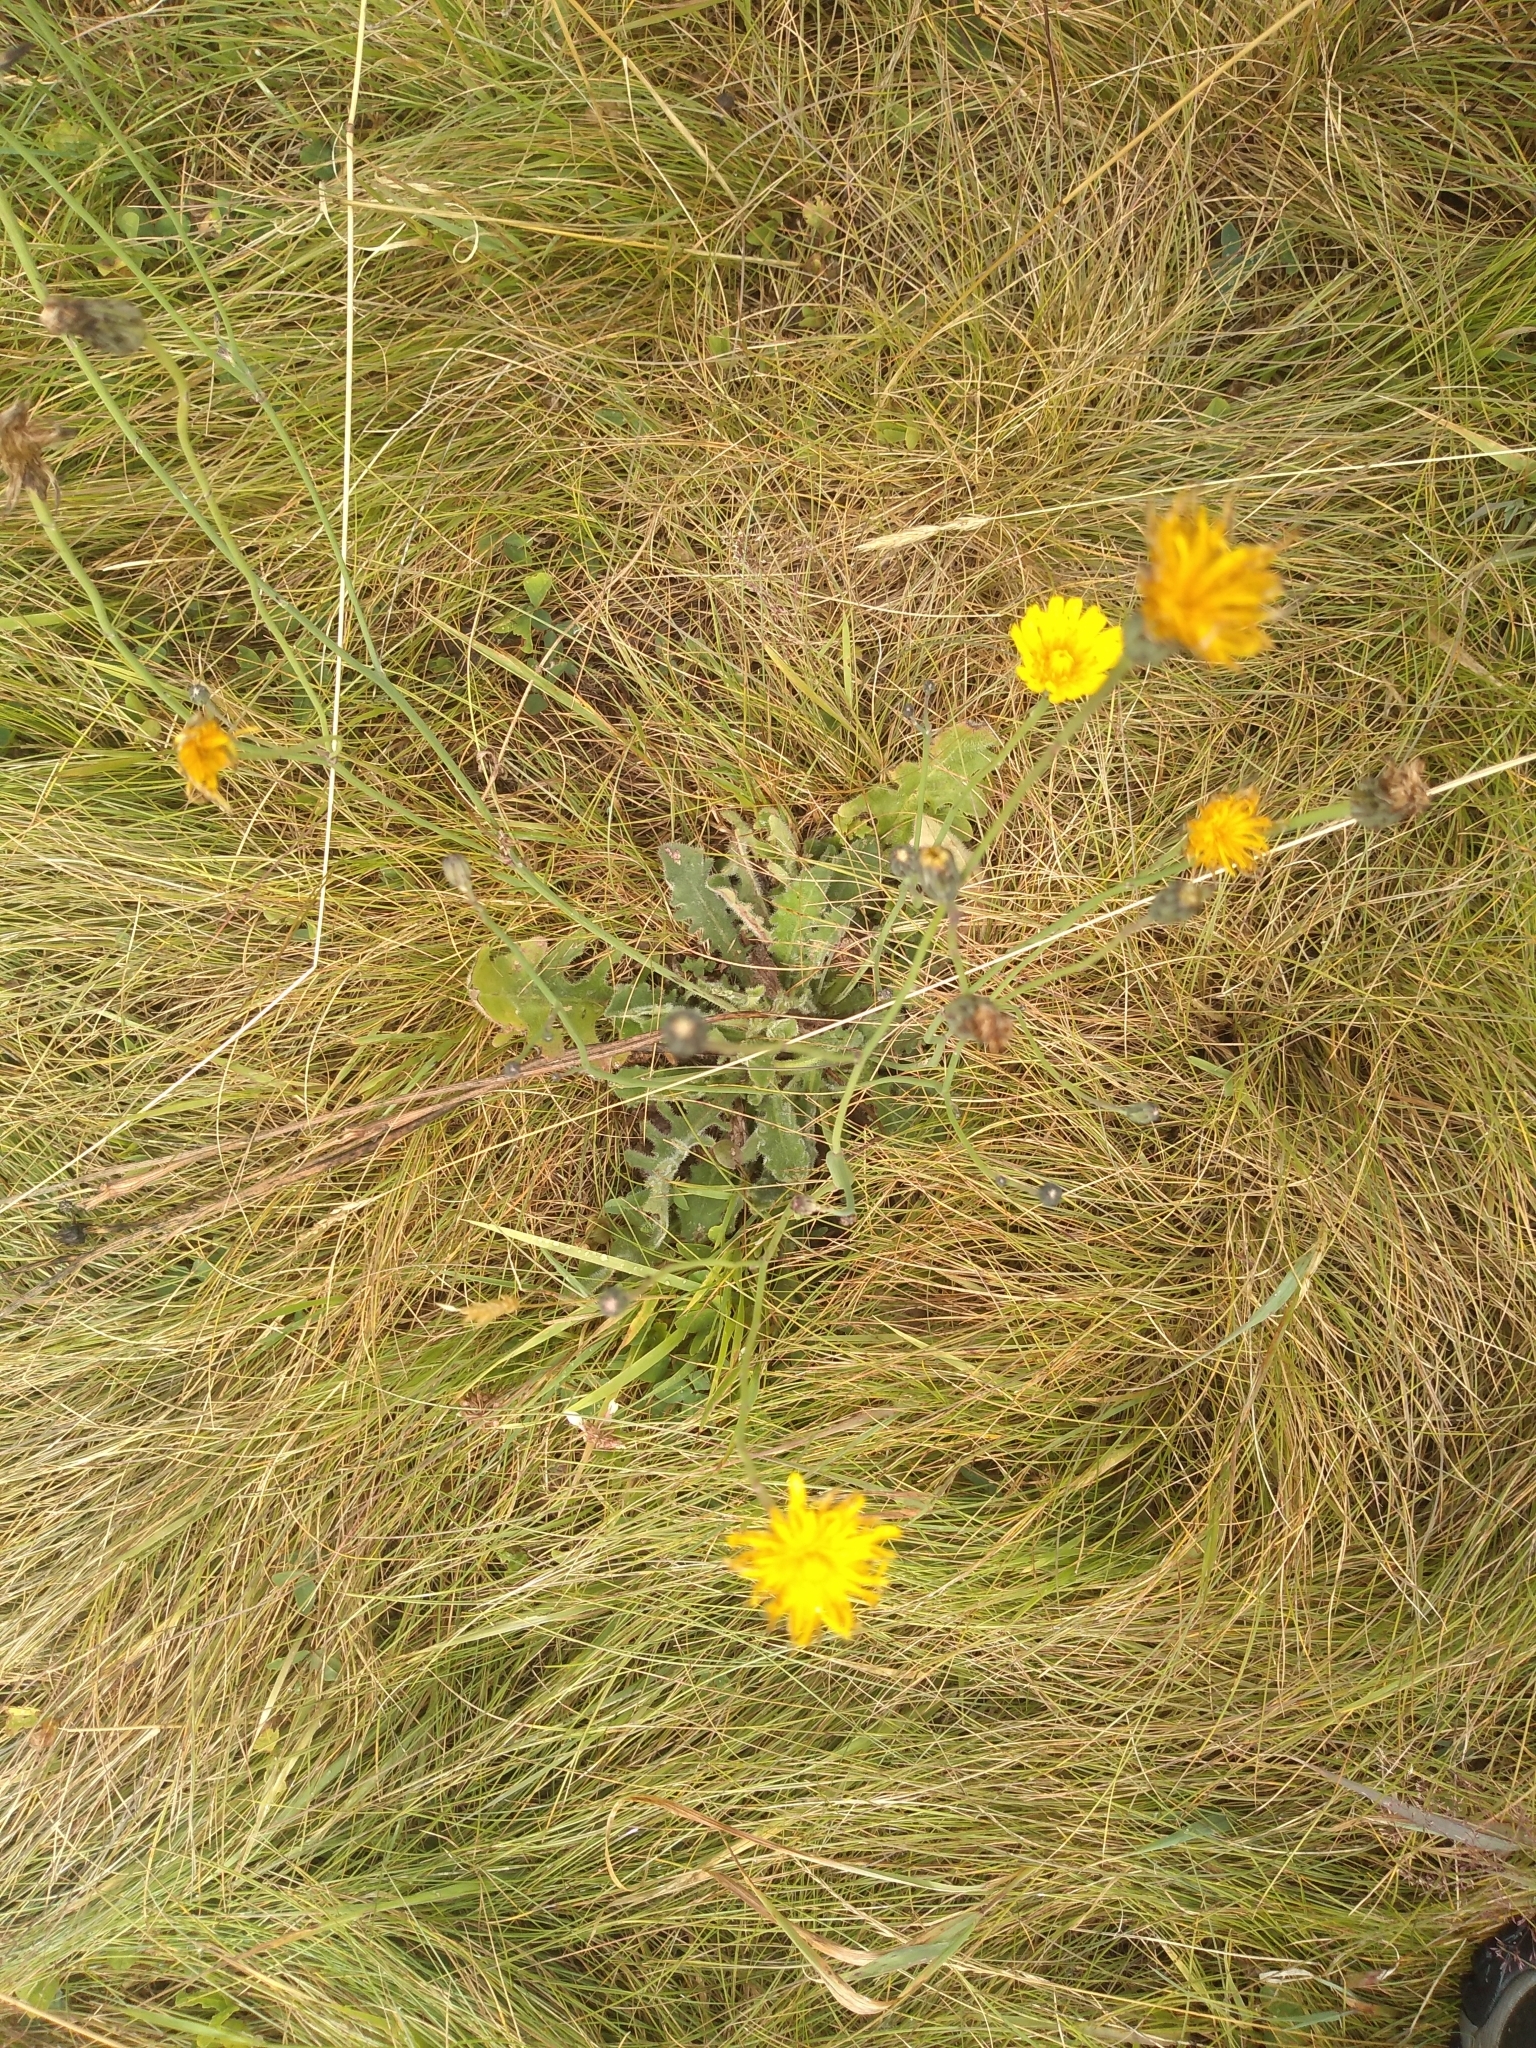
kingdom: Plantae
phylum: Tracheophyta
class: Magnoliopsida
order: Asterales
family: Asteraceae
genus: Hypochaeris
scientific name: Hypochaeris radicata
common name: Flatweed
